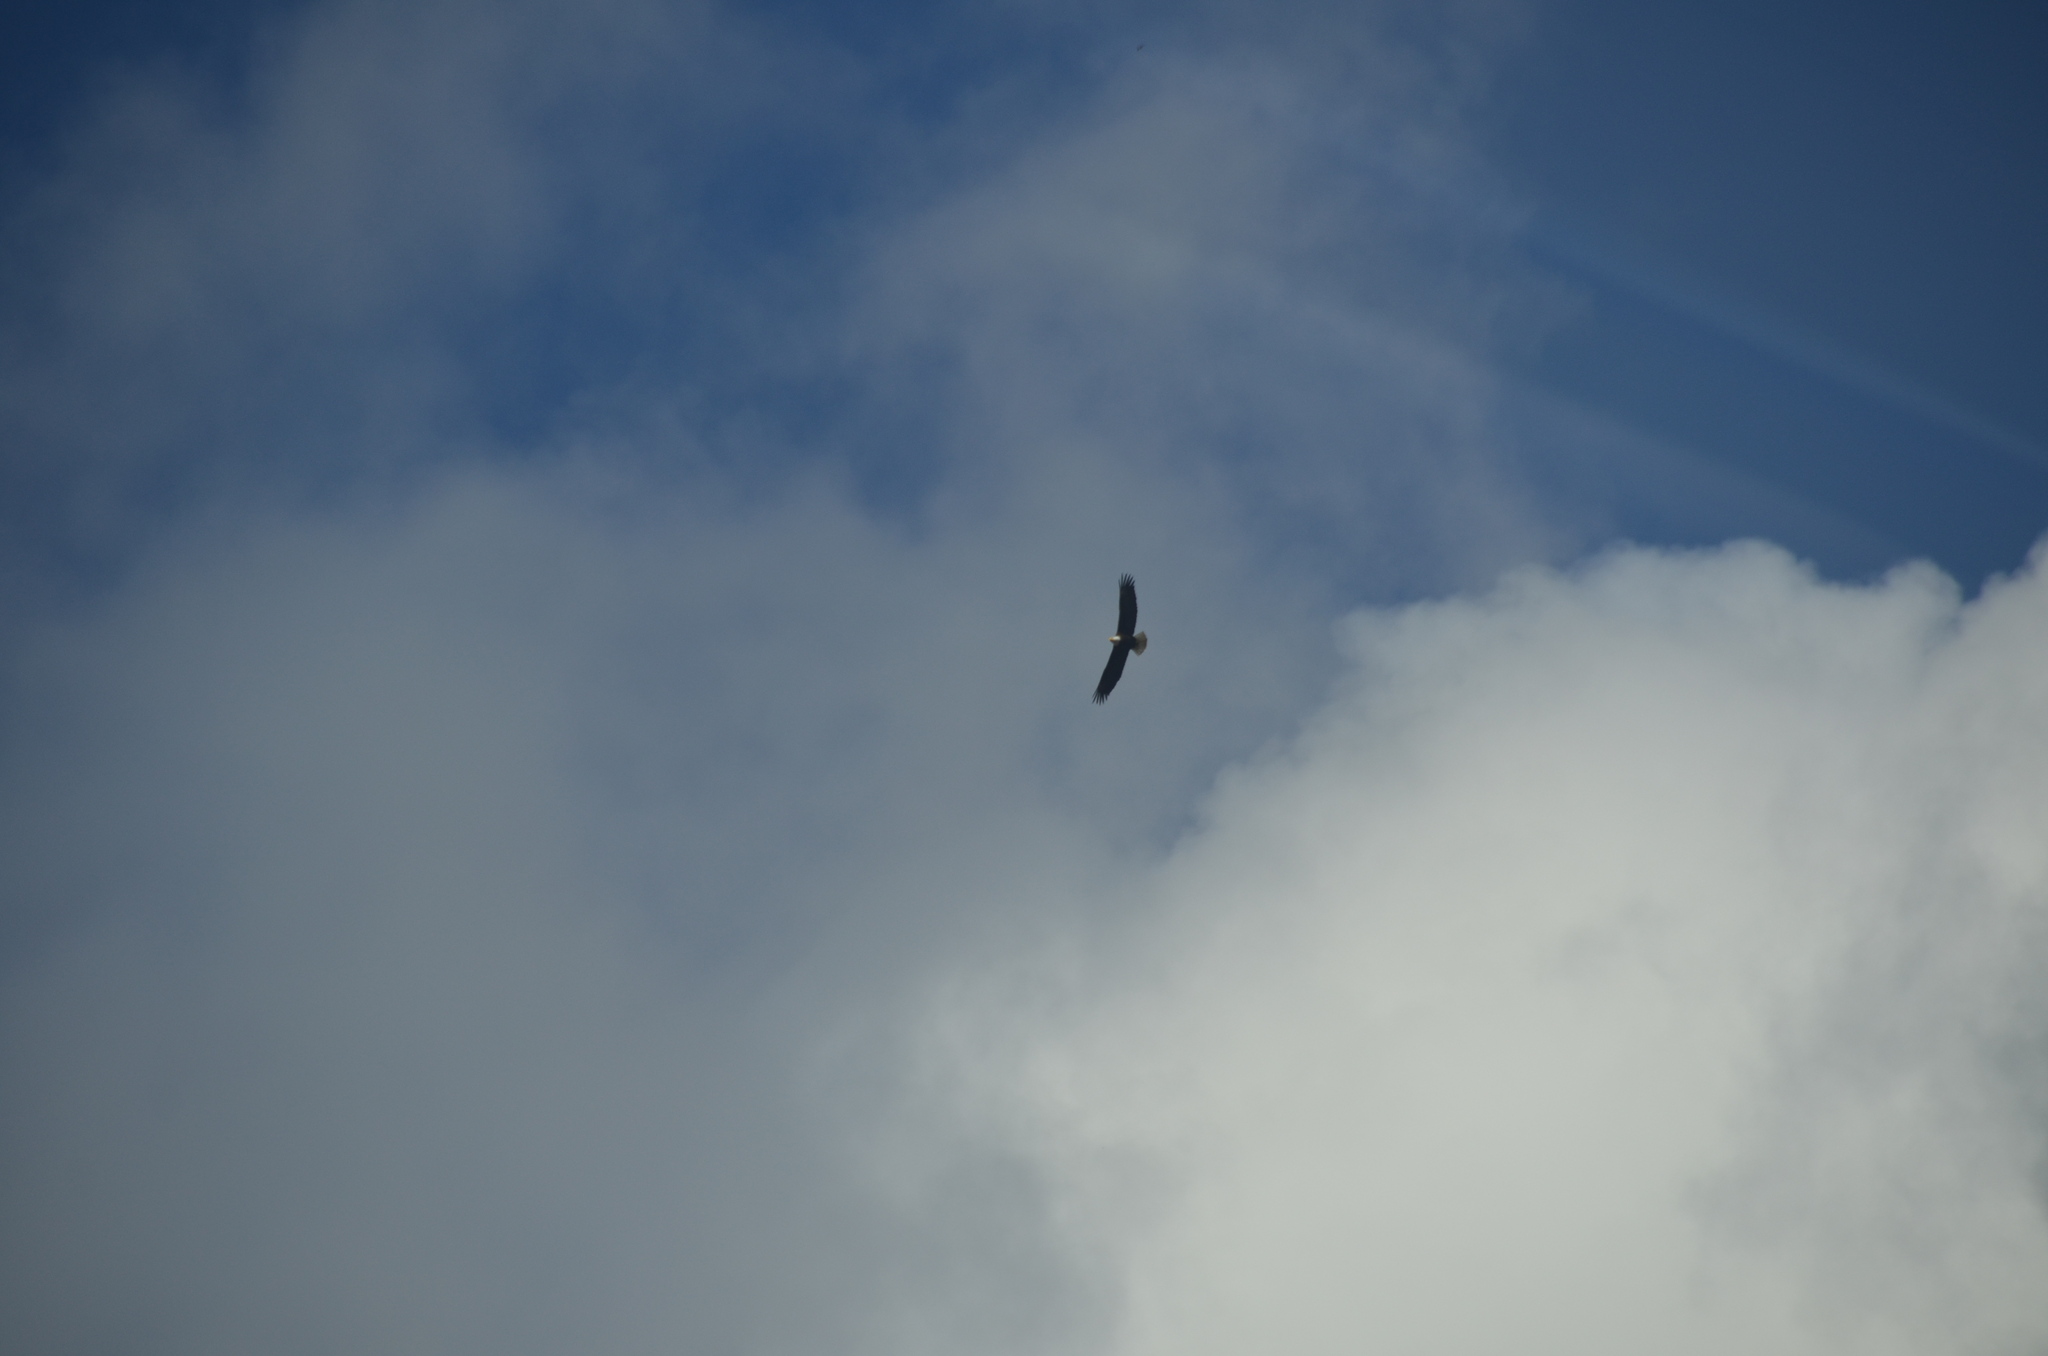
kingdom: Animalia
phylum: Chordata
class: Aves
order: Accipitriformes
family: Accipitridae
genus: Haliaeetus
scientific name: Haliaeetus leucocephalus
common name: Bald eagle
